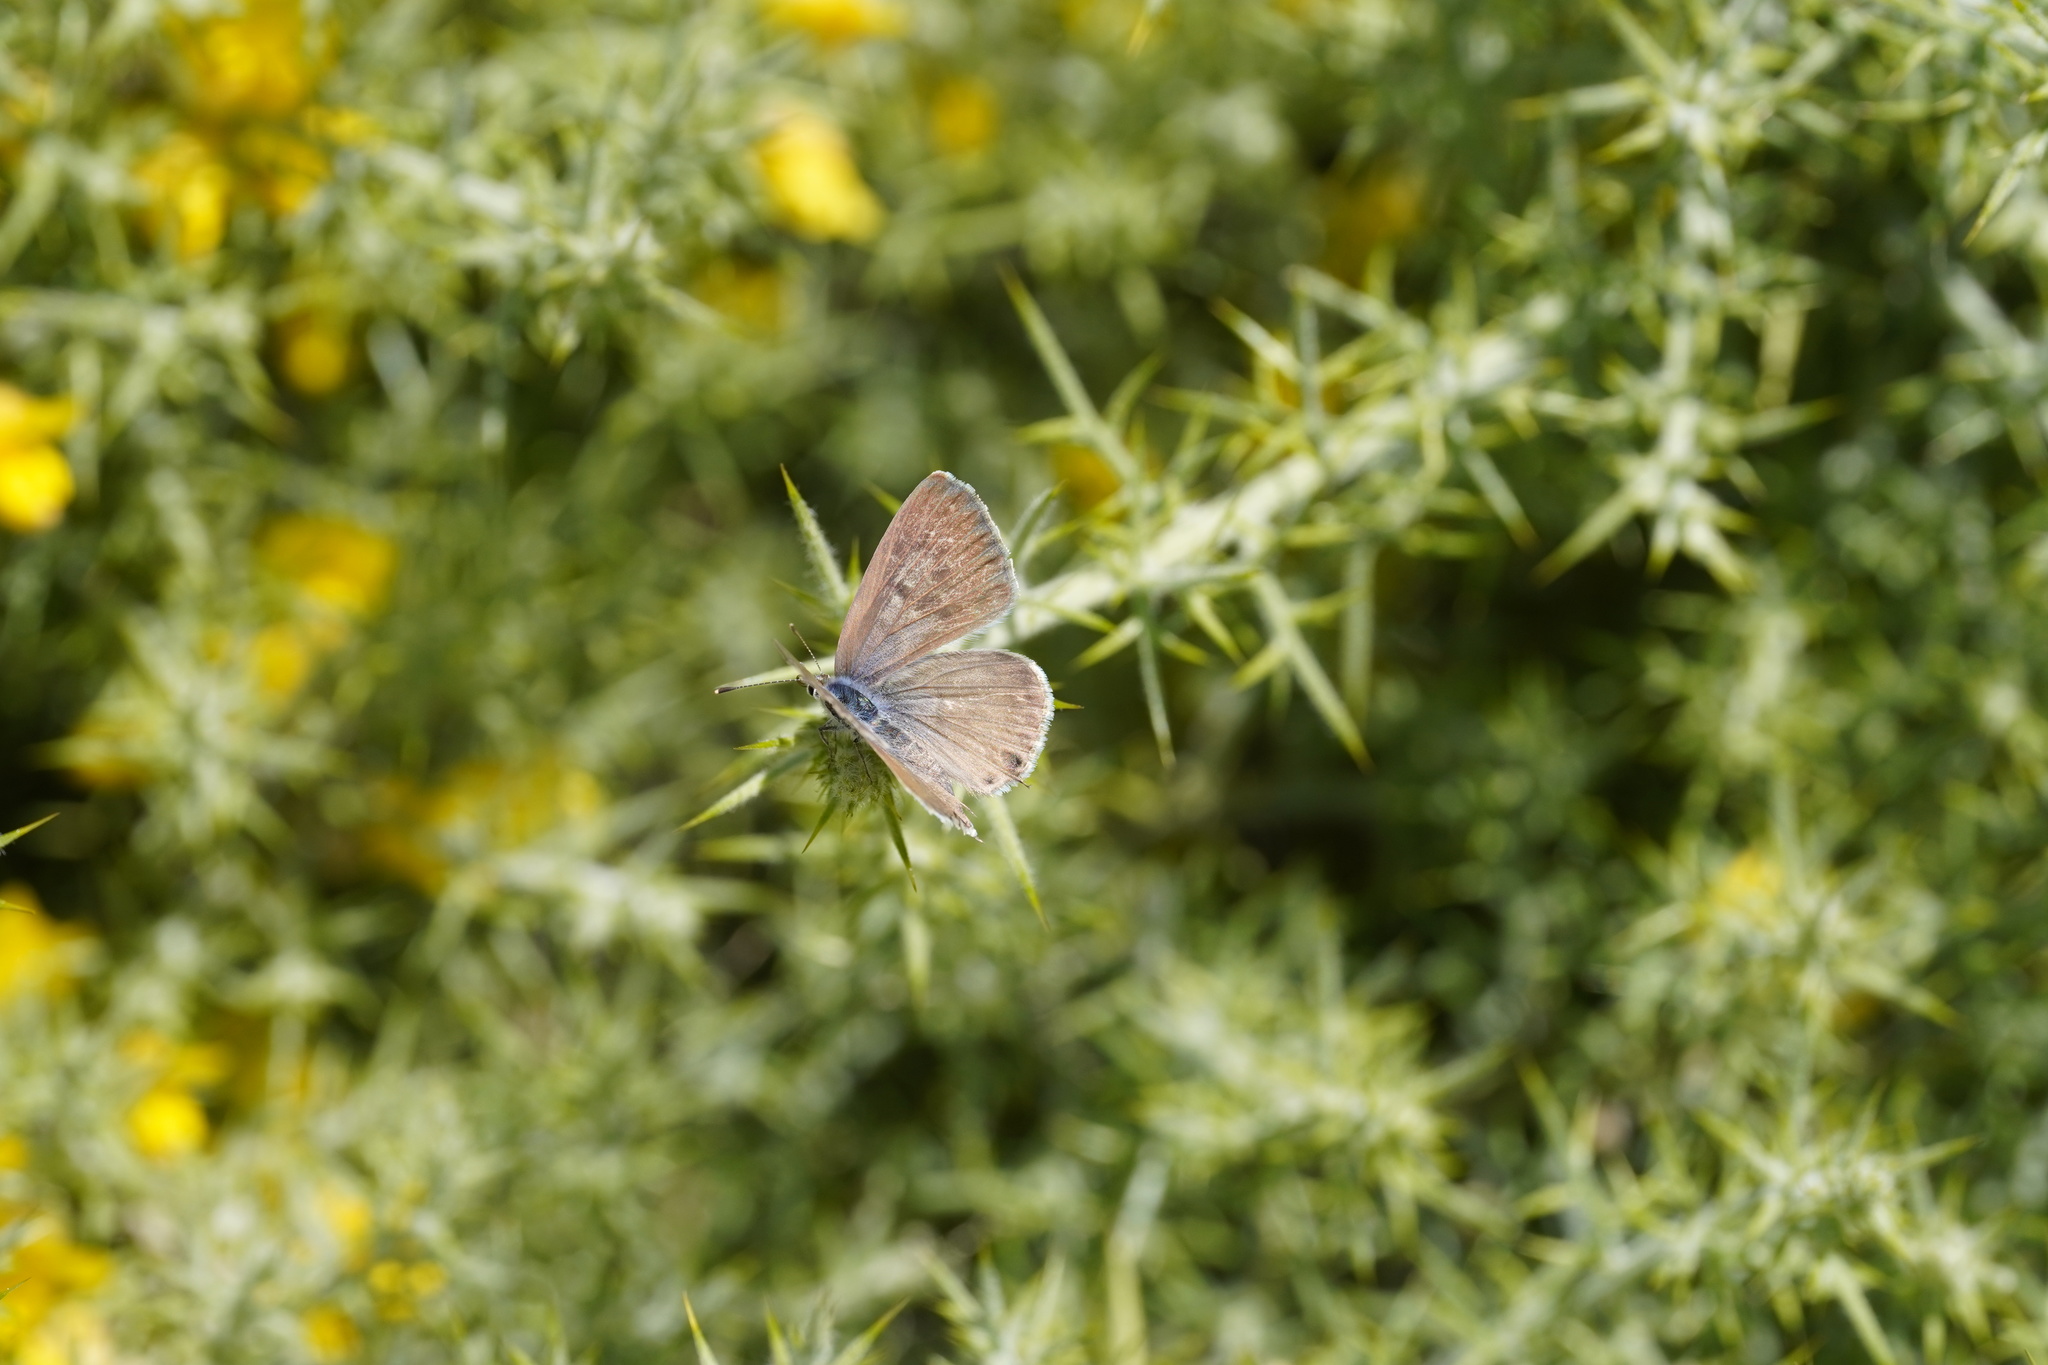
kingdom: Animalia
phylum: Arthropoda
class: Insecta
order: Lepidoptera
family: Lycaenidae
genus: Leptotes
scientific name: Leptotes pirithous
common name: Lang's short-tailed blue
